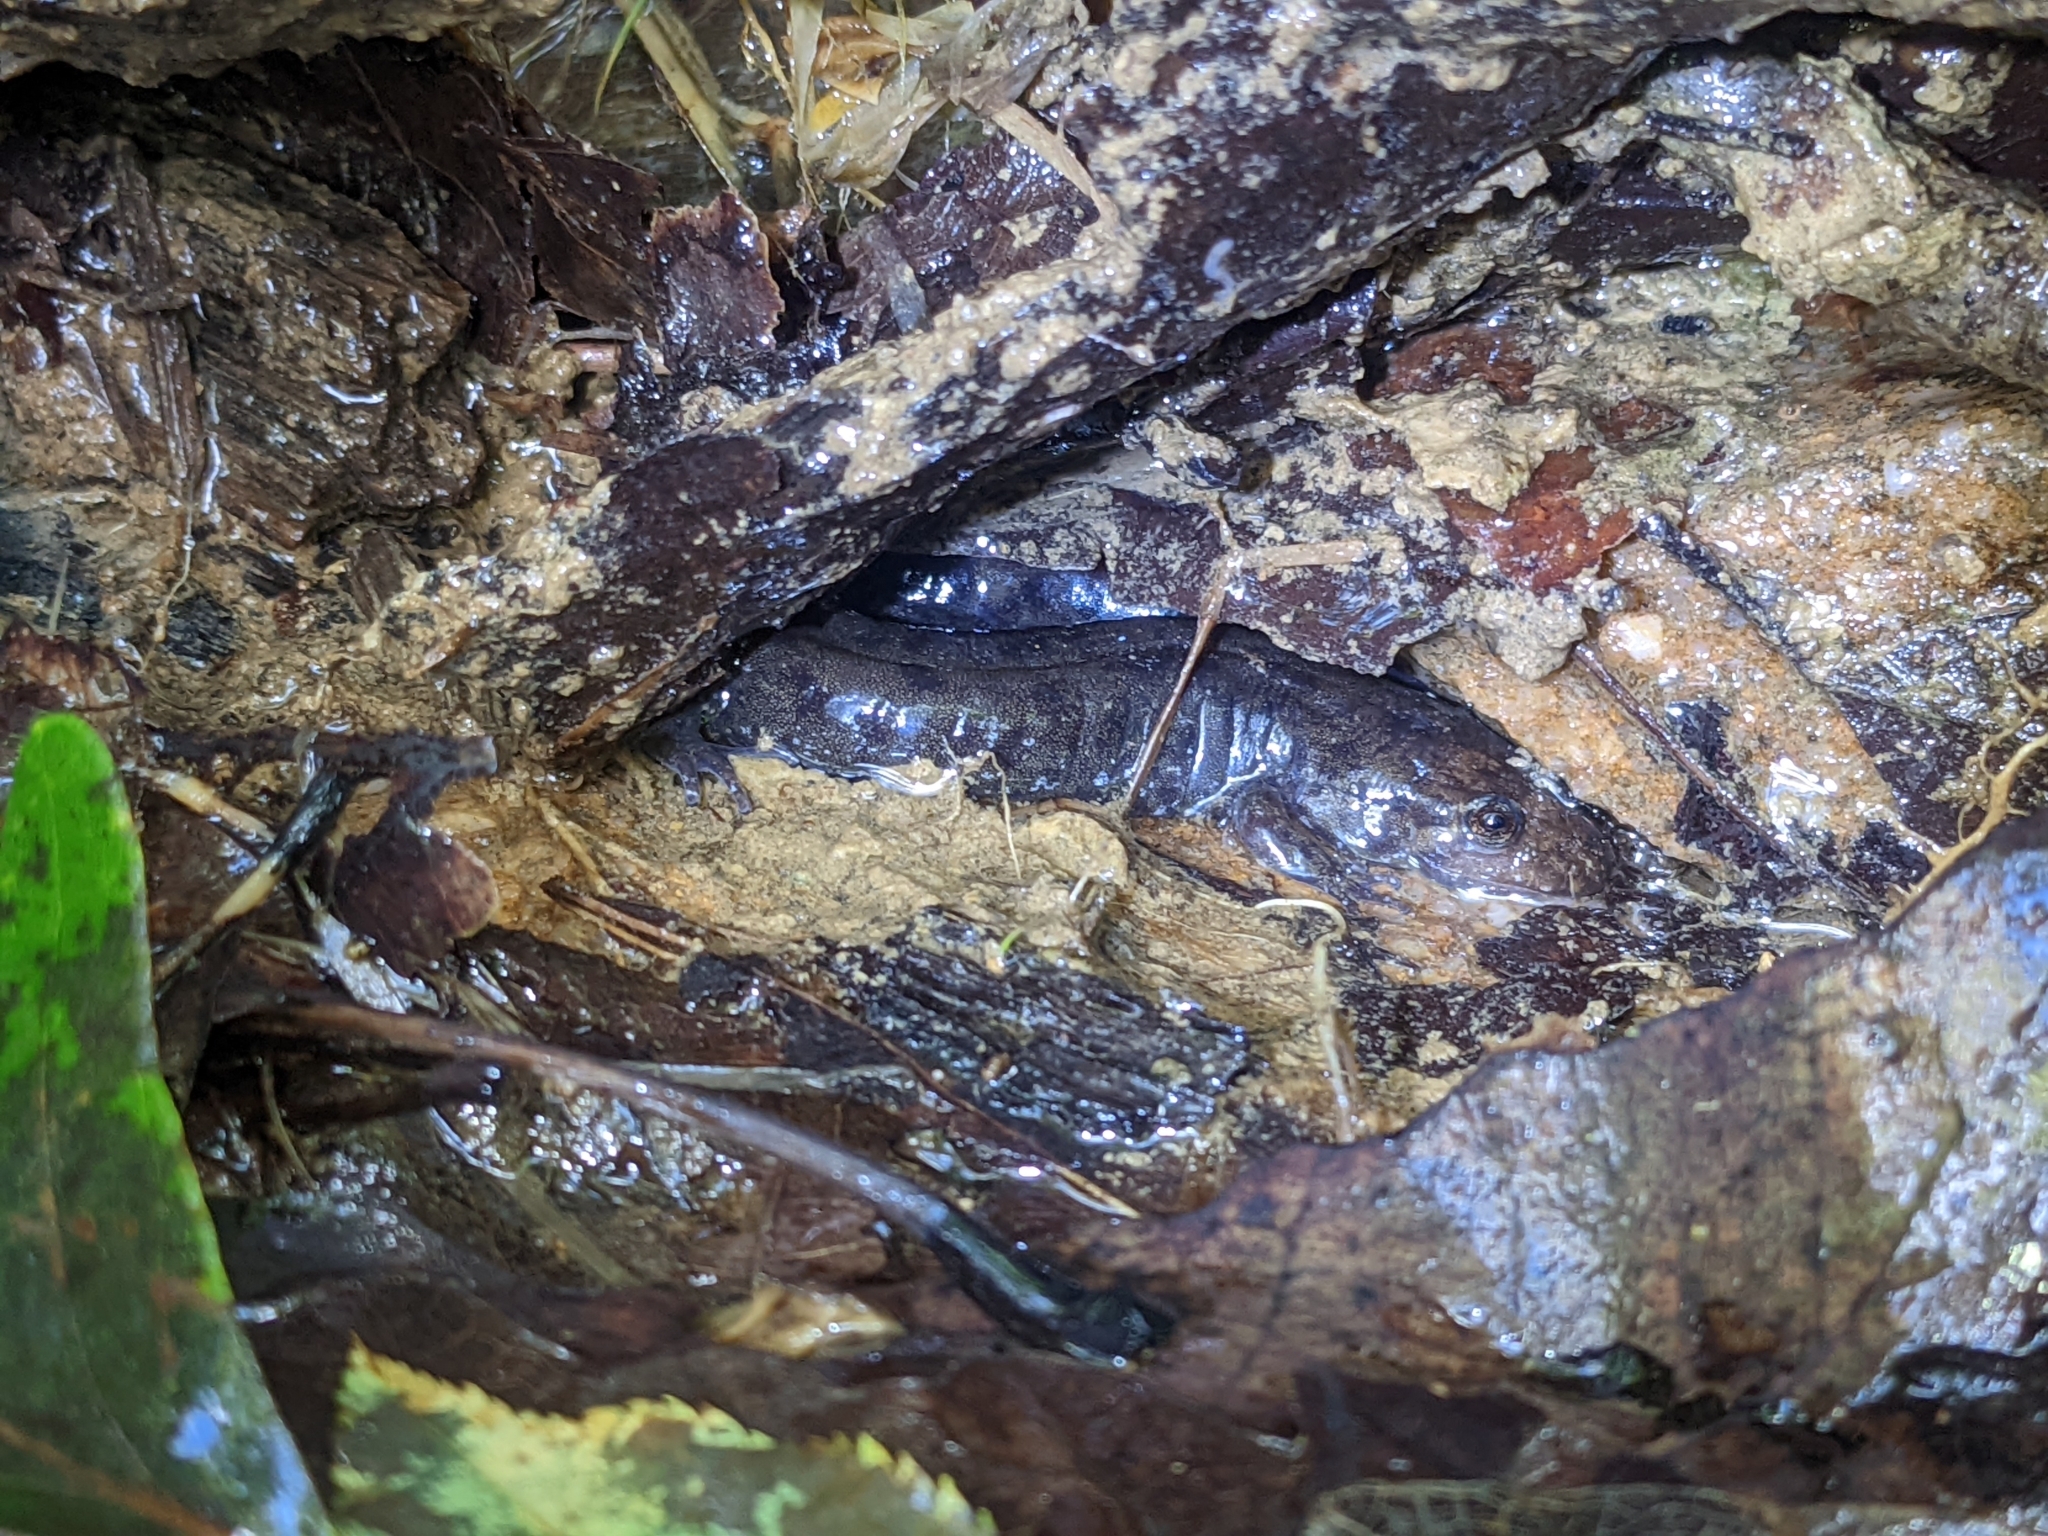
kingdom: Animalia
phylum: Chordata
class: Amphibia
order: Caudata
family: Plethodontidae
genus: Desmognathus
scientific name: Desmognathus monticola
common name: Seal salamander
